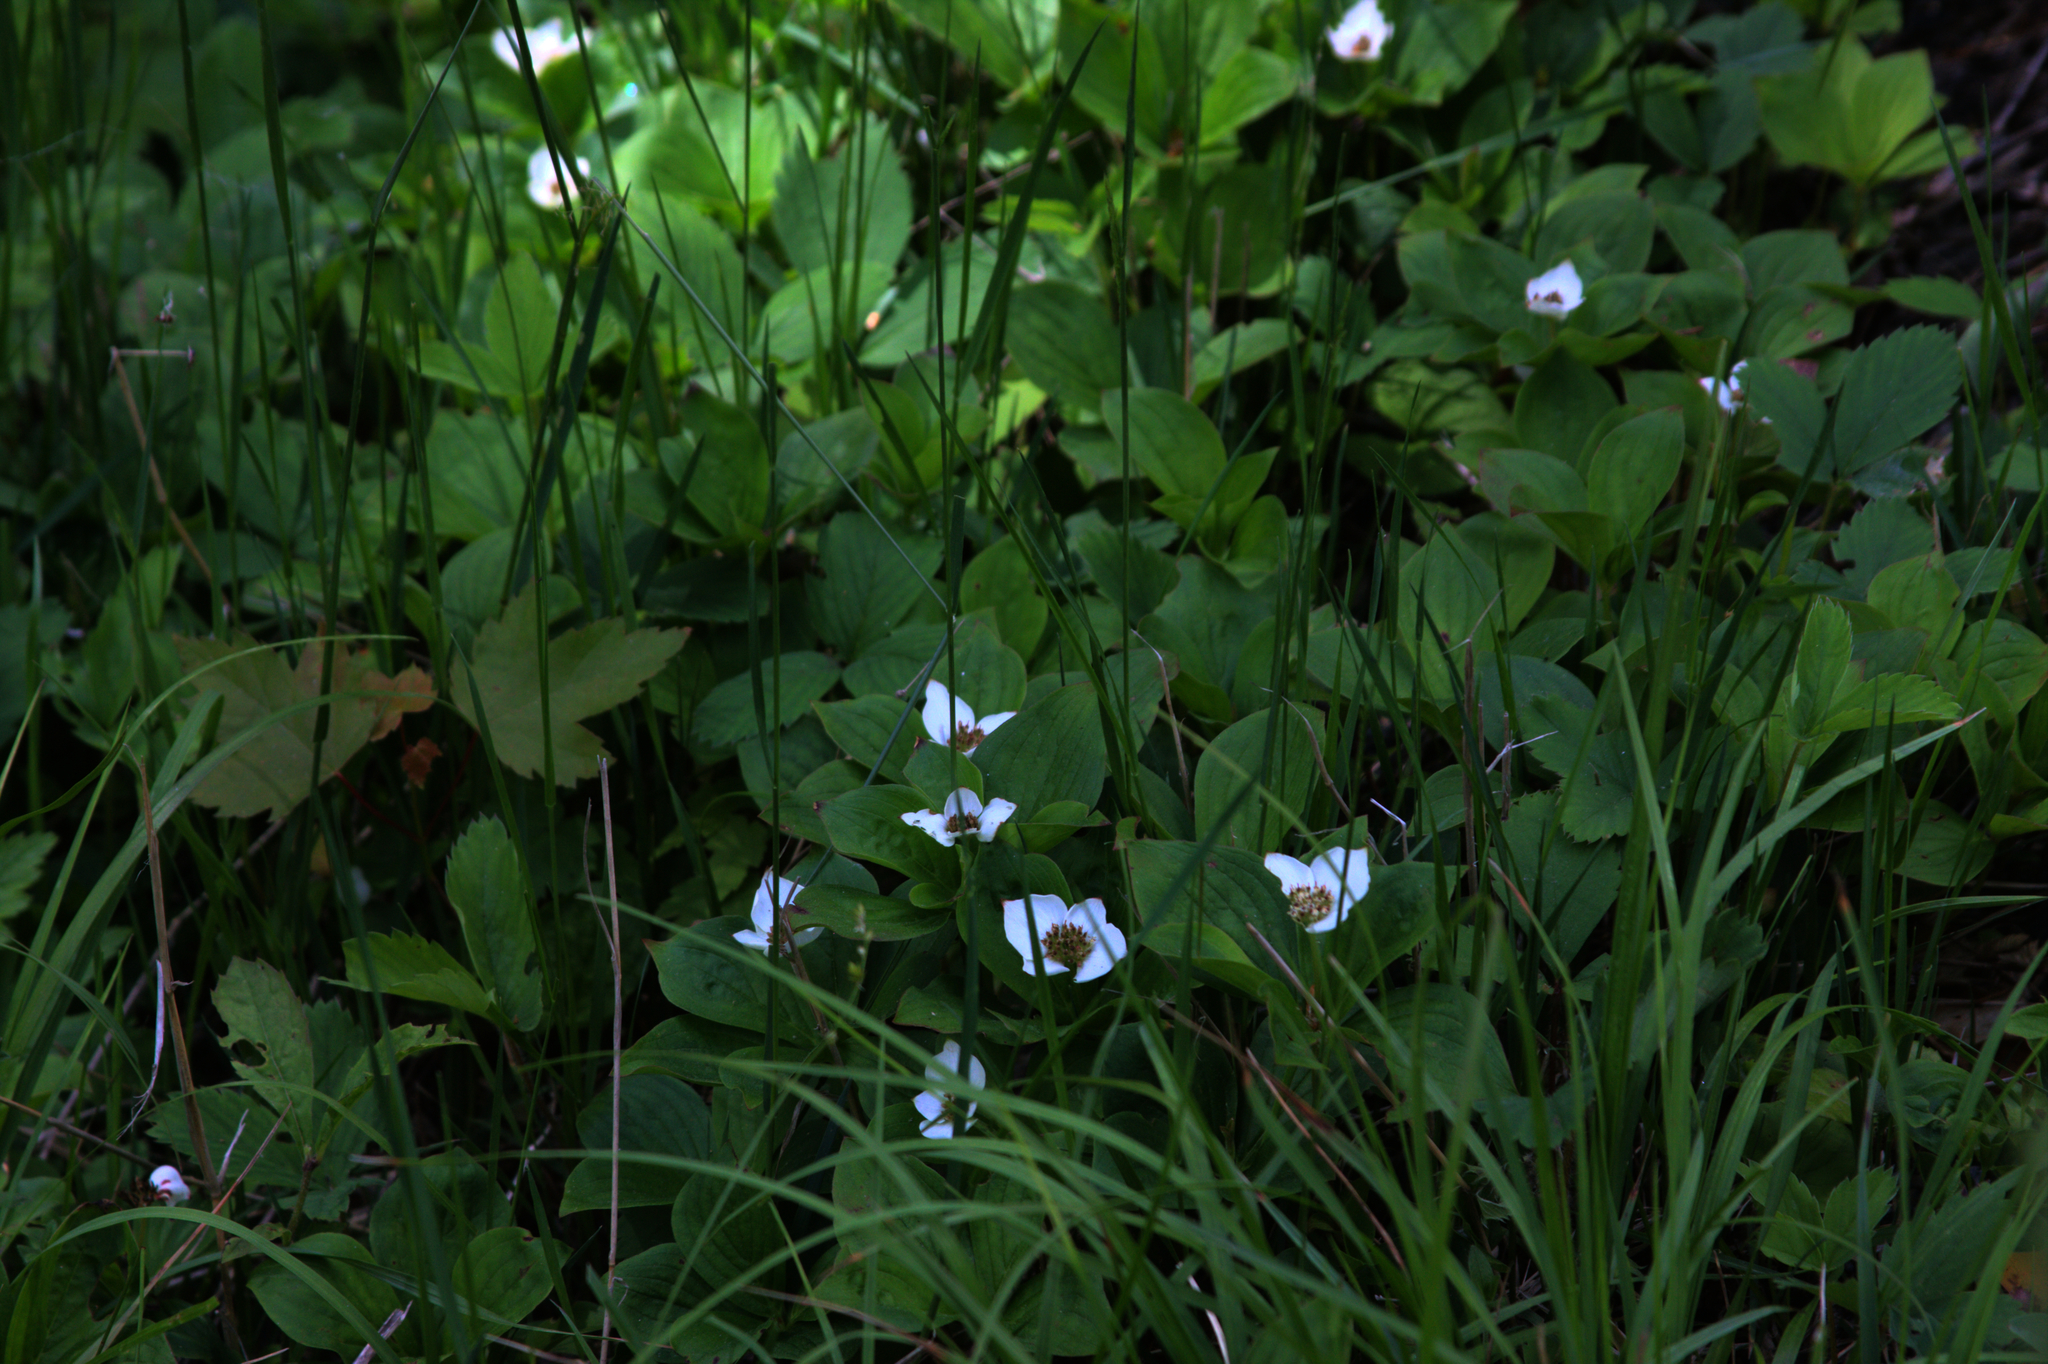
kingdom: Plantae
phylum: Tracheophyta
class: Magnoliopsida
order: Cornales
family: Cornaceae
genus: Cornus
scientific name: Cornus canadensis
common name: Creeping dogwood
